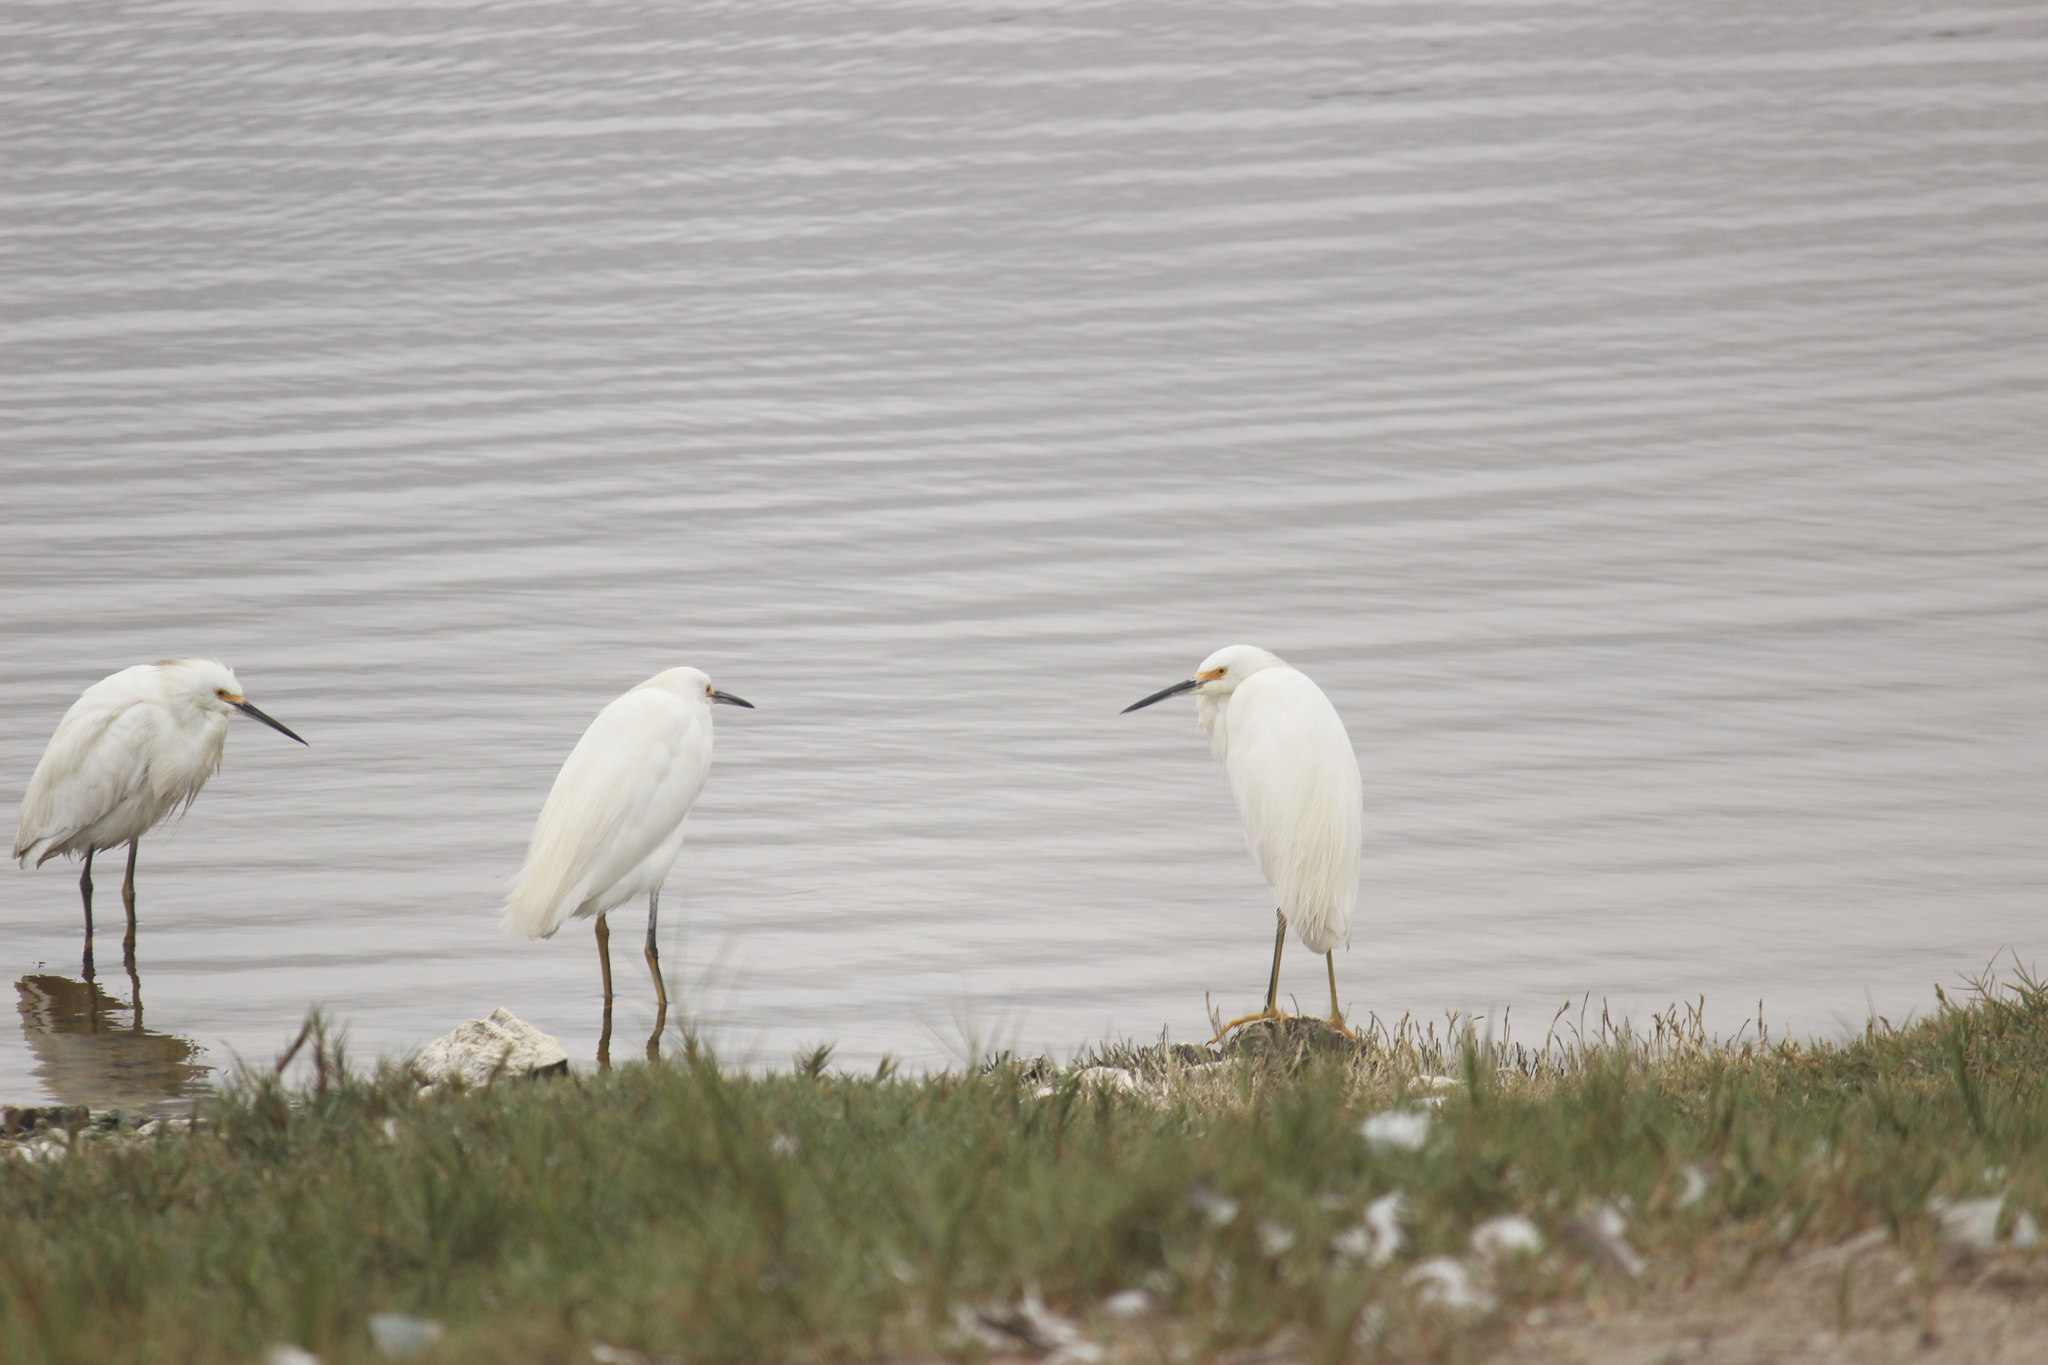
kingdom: Animalia
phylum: Chordata
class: Aves
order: Pelecaniformes
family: Ardeidae
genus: Egretta
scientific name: Egretta thula
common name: Snowy egret
